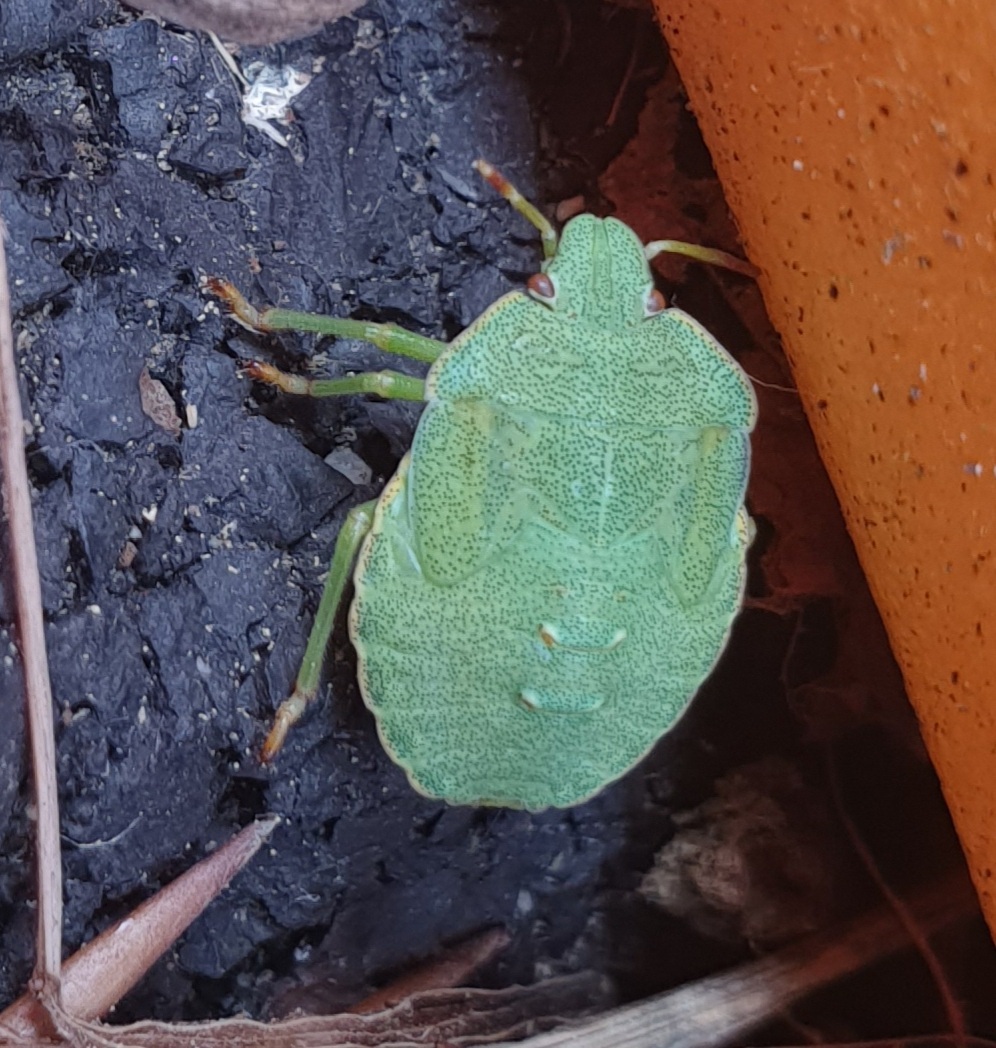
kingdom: Animalia
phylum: Arthropoda
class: Insecta
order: Hemiptera
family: Pentatomidae
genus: Palomena
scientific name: Palomena prasina
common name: Green shieldbug
